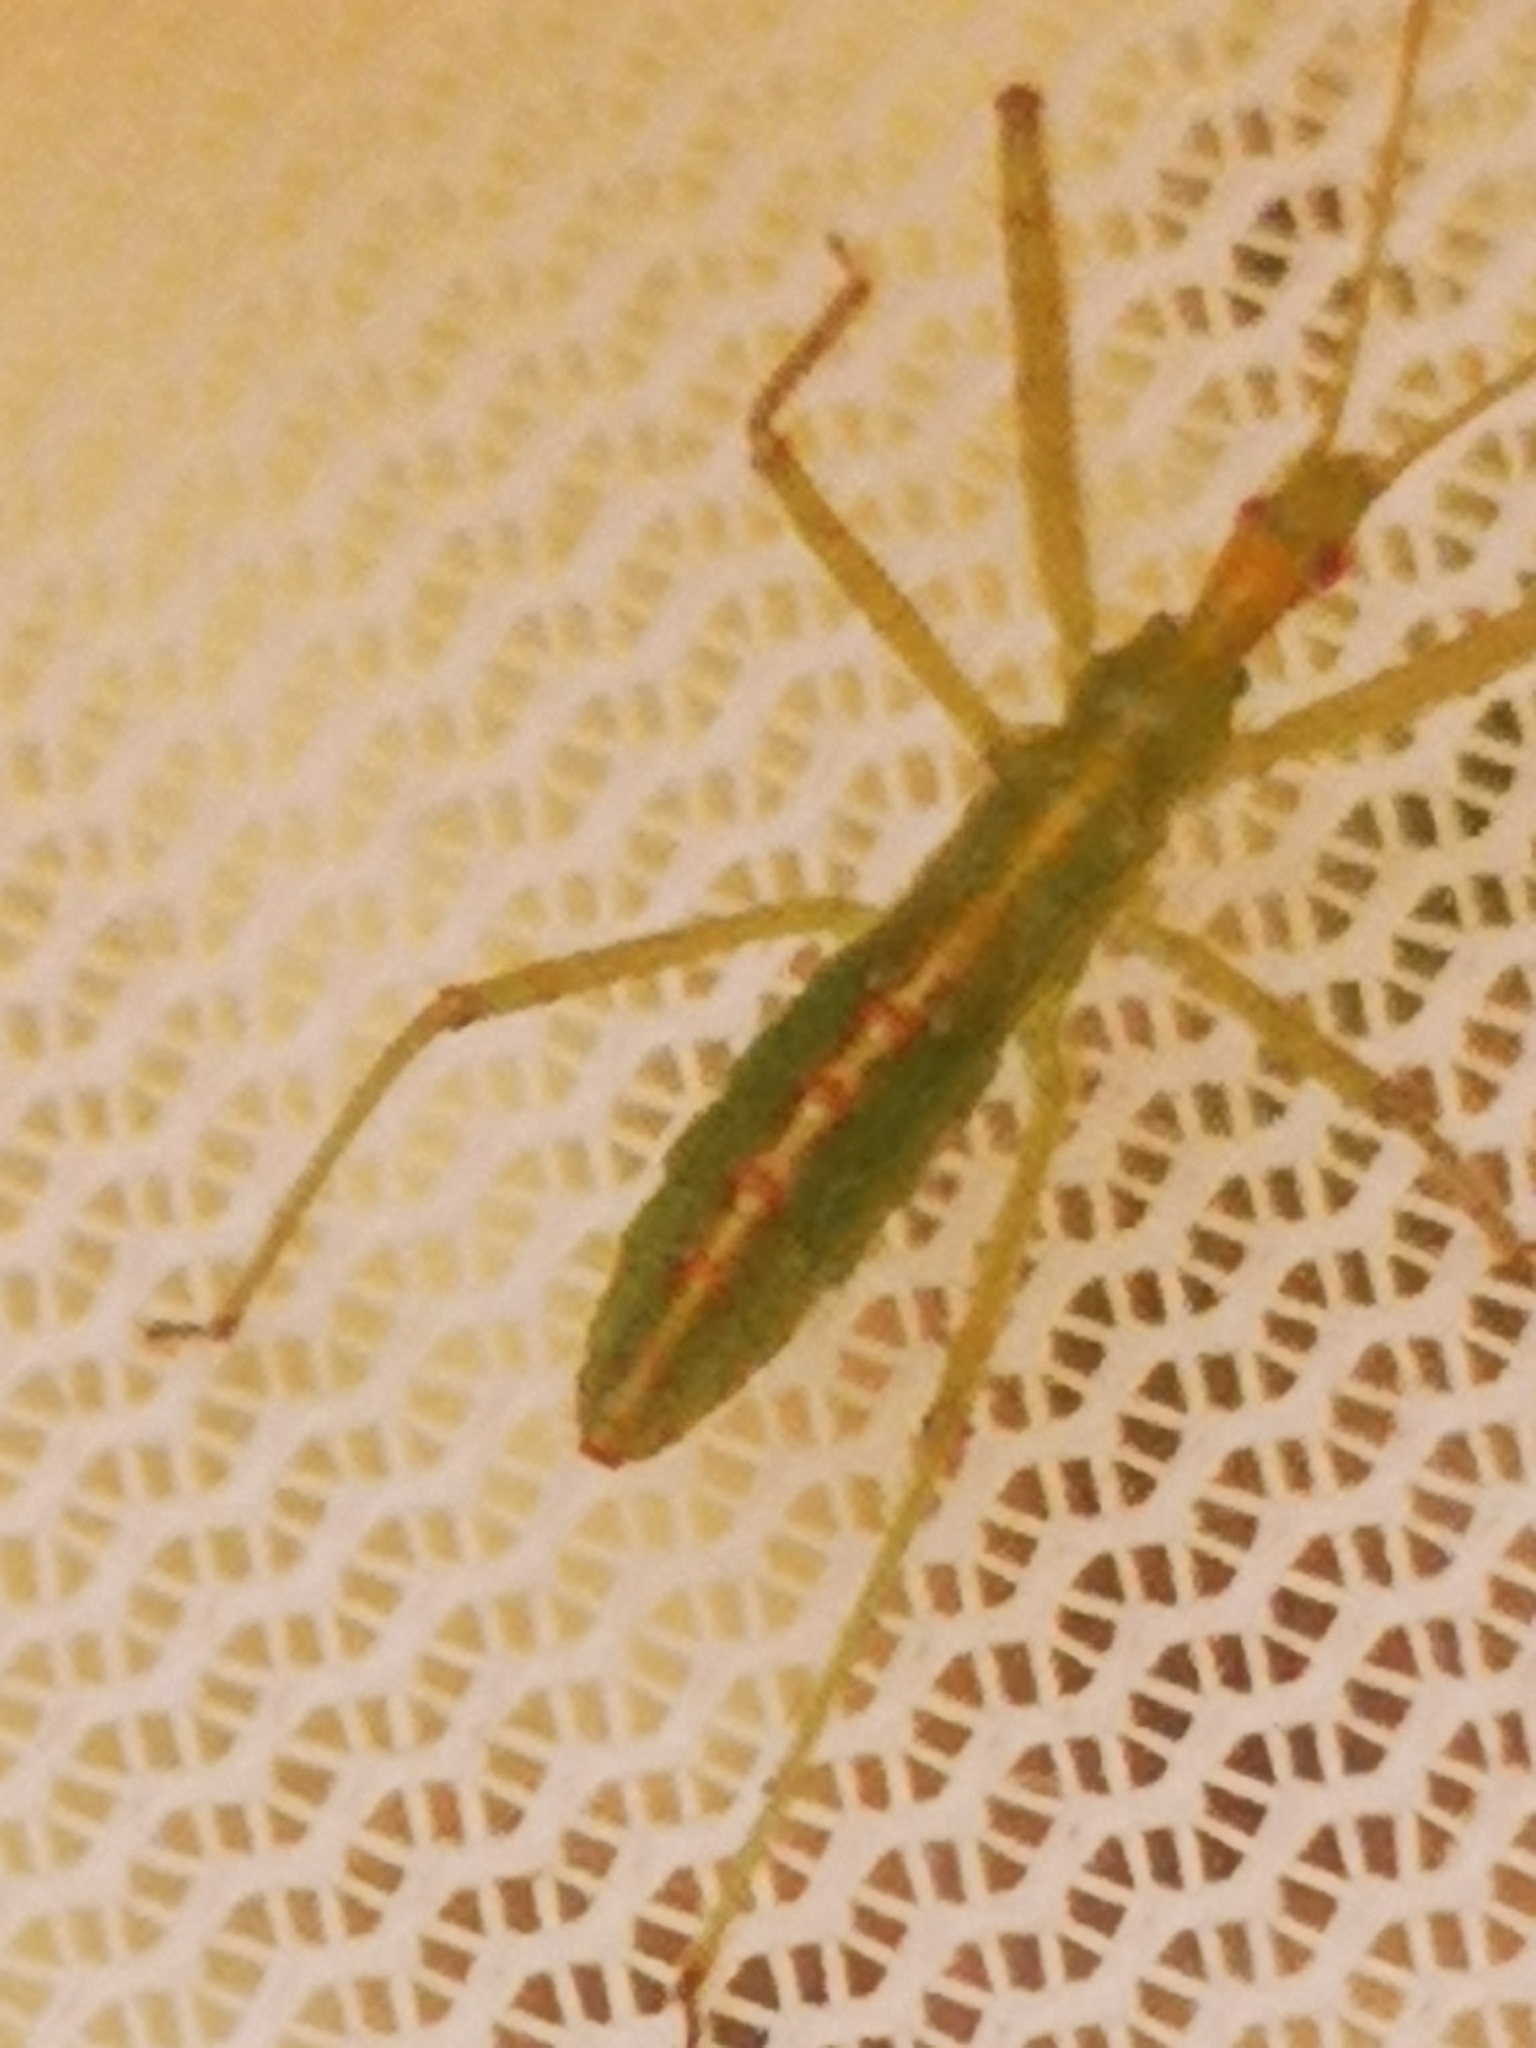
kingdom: Animalia
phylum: Arthropoda
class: Insecta
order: Hemiptera
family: Reduviidae
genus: Zelus
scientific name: Zelus luridus
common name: Pale green assassin bug
